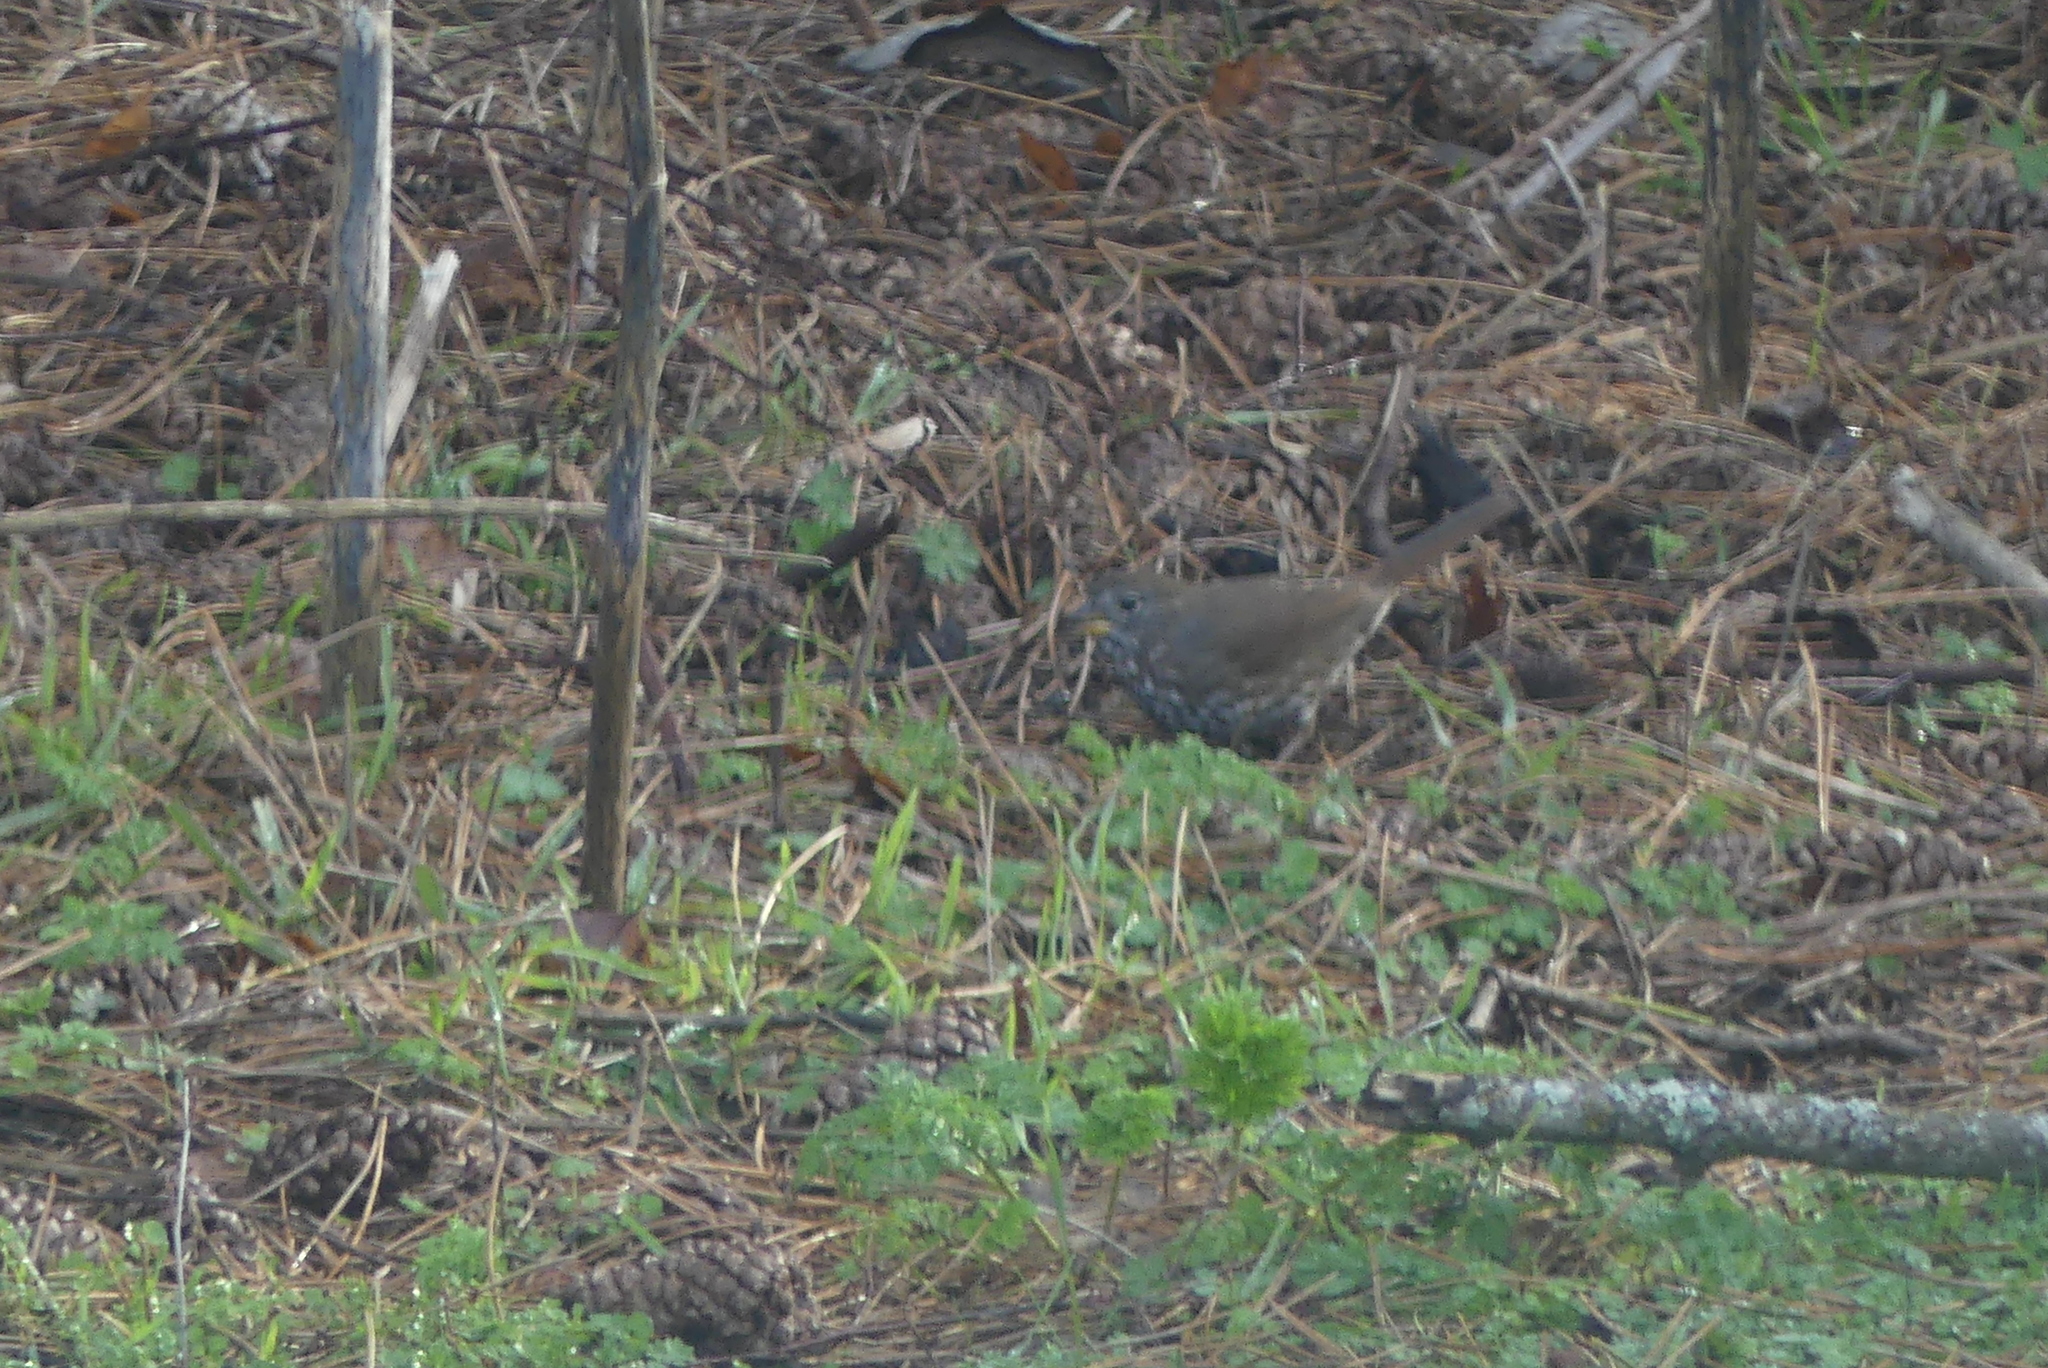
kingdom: Animalia
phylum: Chordata
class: Aves
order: Passeriformes
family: Passerellidae
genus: Passerella
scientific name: Passerella iliaca
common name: Fox sparrow
